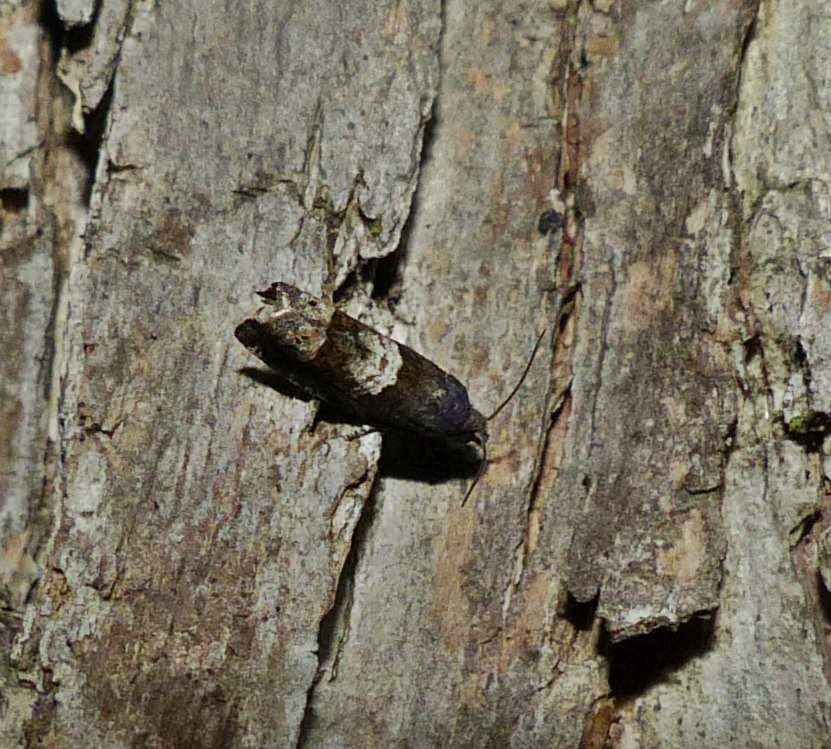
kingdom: Animalia
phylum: Arthropoda
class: Insecta
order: Lepidoptera
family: Tortricidae
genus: Eucosma
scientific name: Eucosma parmatana
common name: Aster eucosma moth
